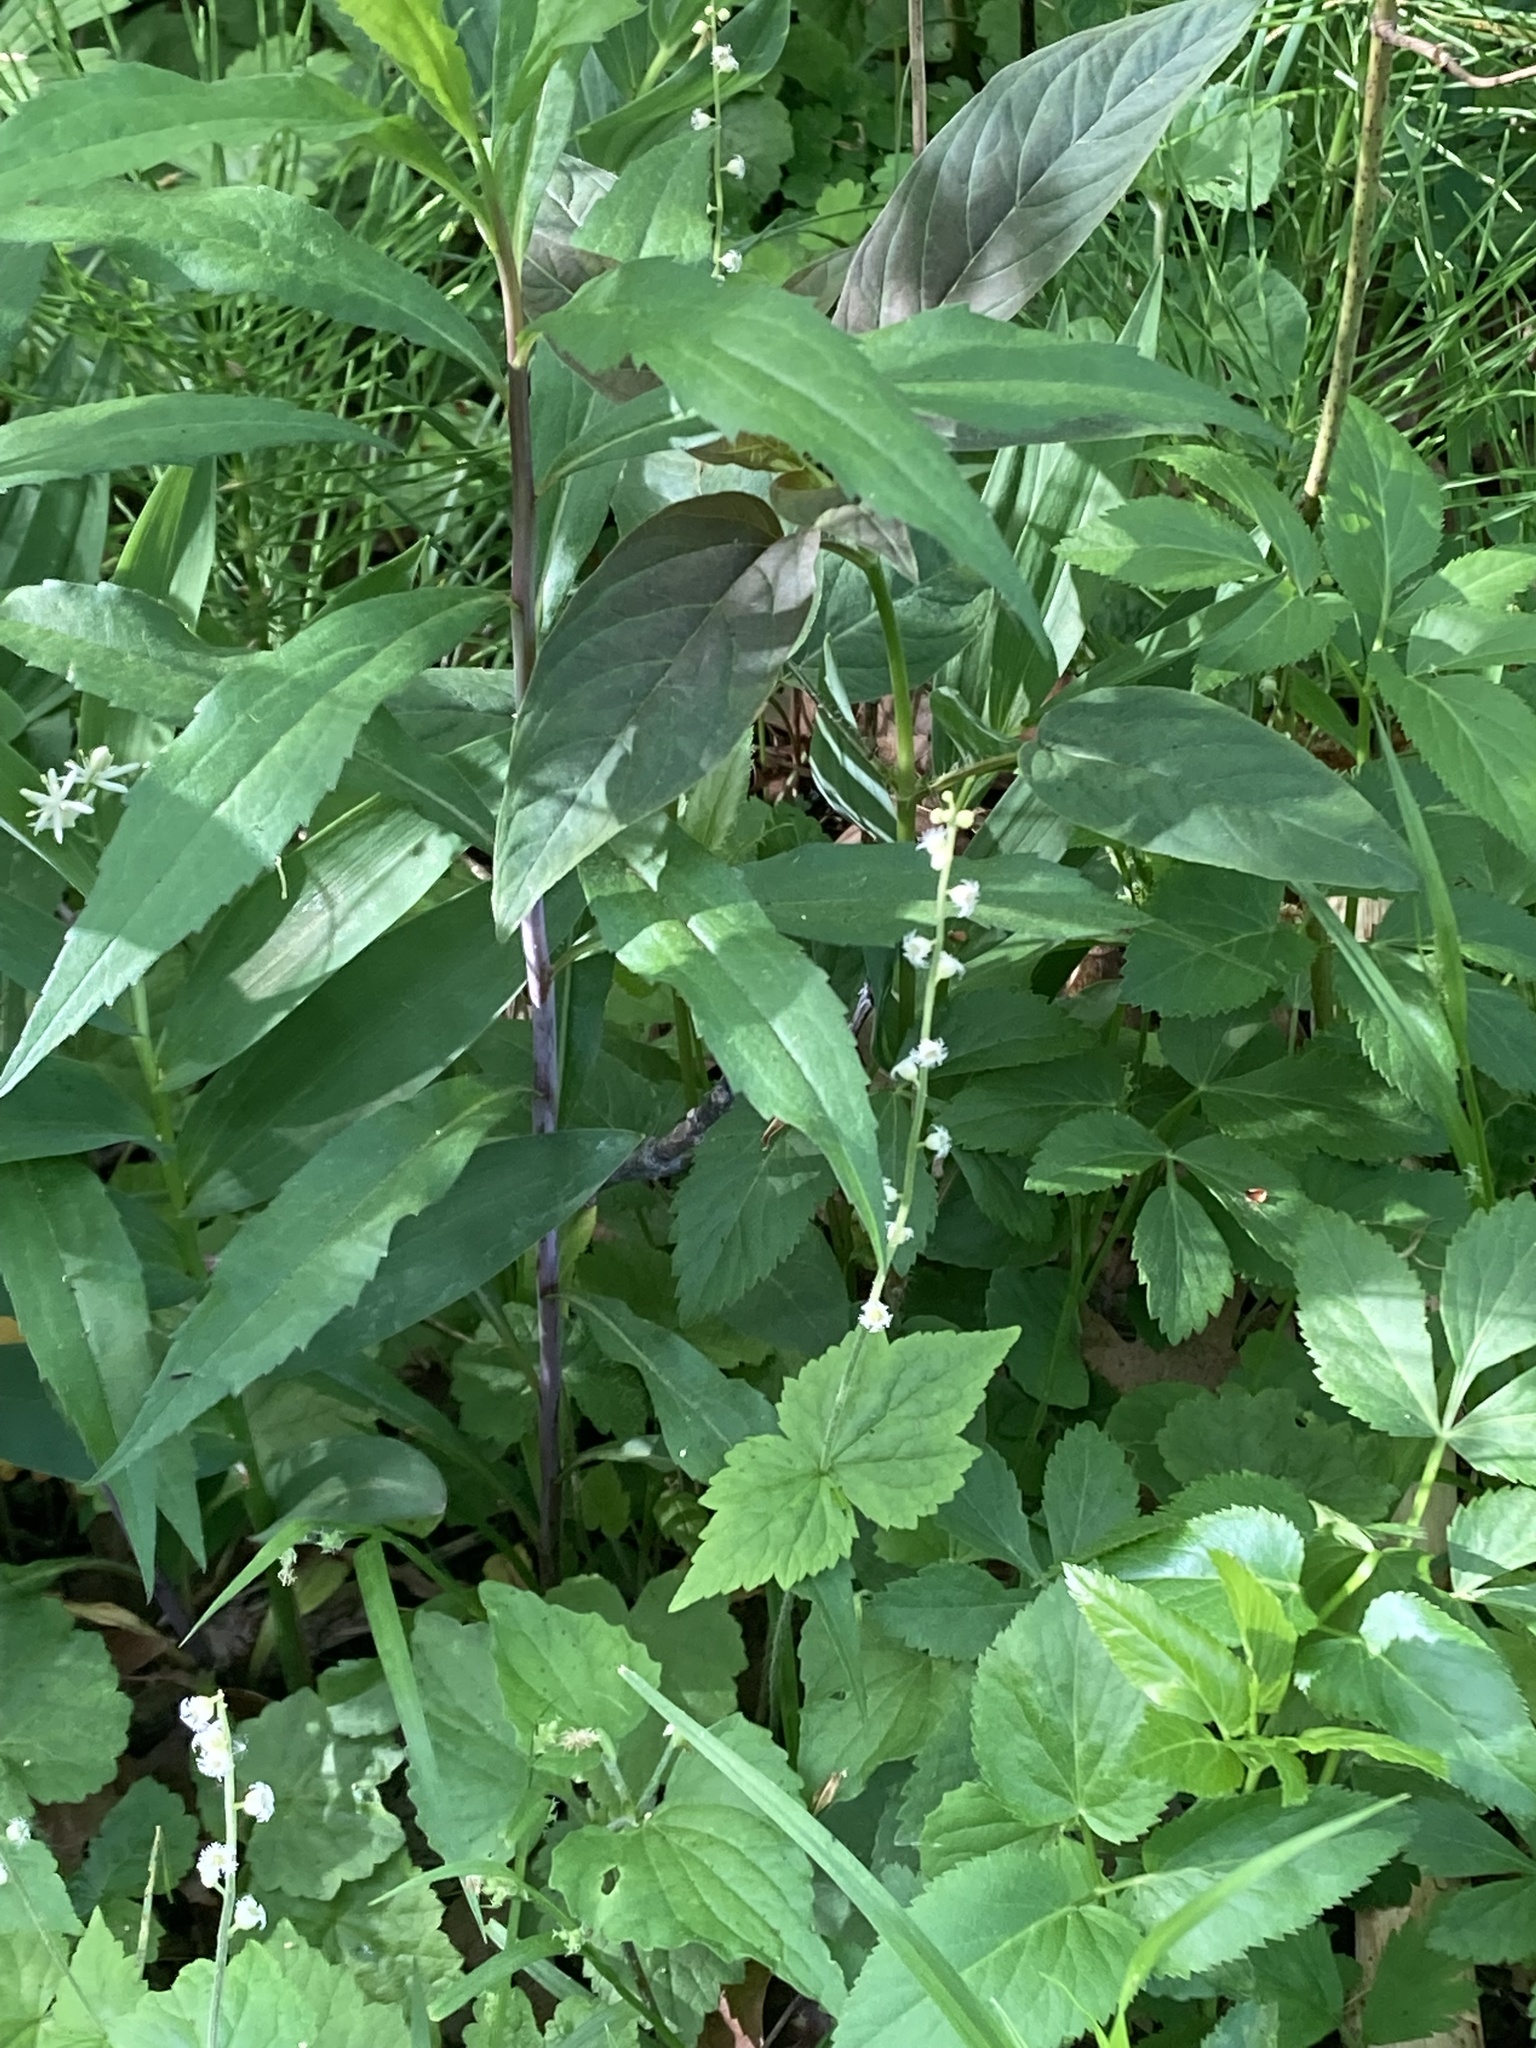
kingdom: Plantae
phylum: Tracheophyta
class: Magnoliopsida
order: Saxifragales
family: Saxifragaceae
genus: Mitella
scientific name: Mitella diphylla
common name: Coolwort
